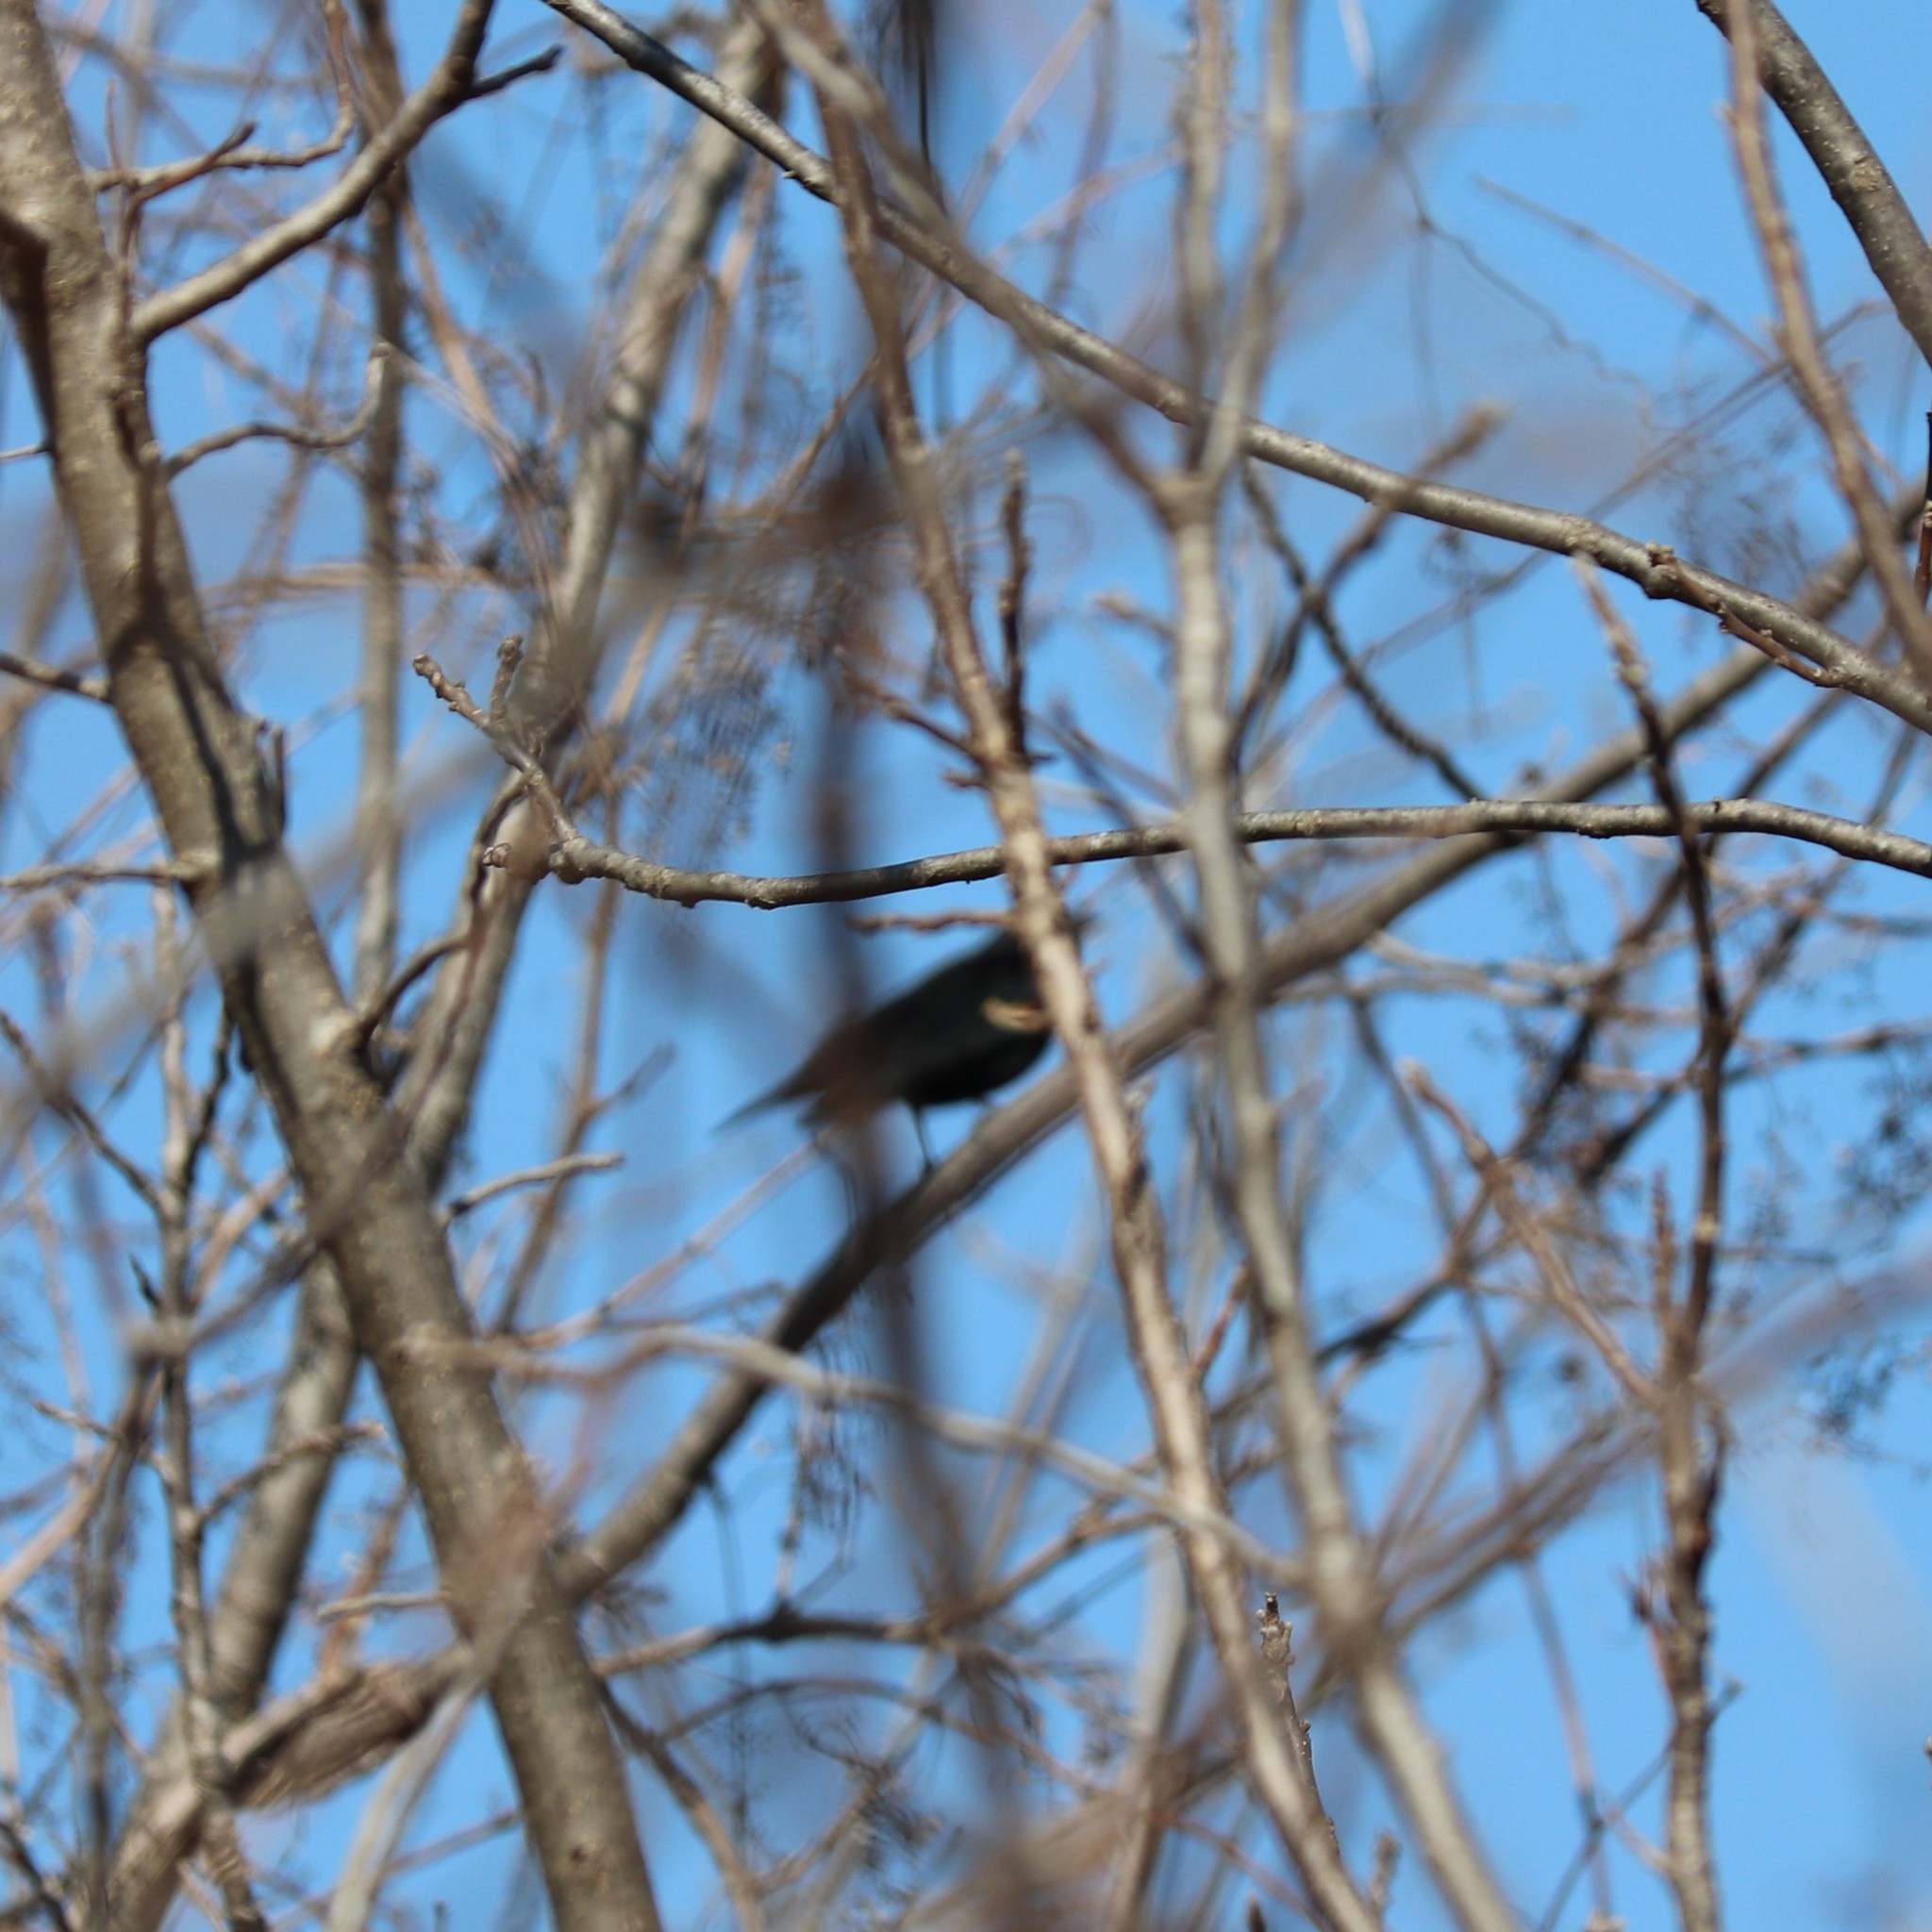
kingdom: Animalia
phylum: Chordata
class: Aves
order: Passeriformes
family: Icteridae
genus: Agelaius
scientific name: Agelaius phoeniceus
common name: Red-winged blackbird
